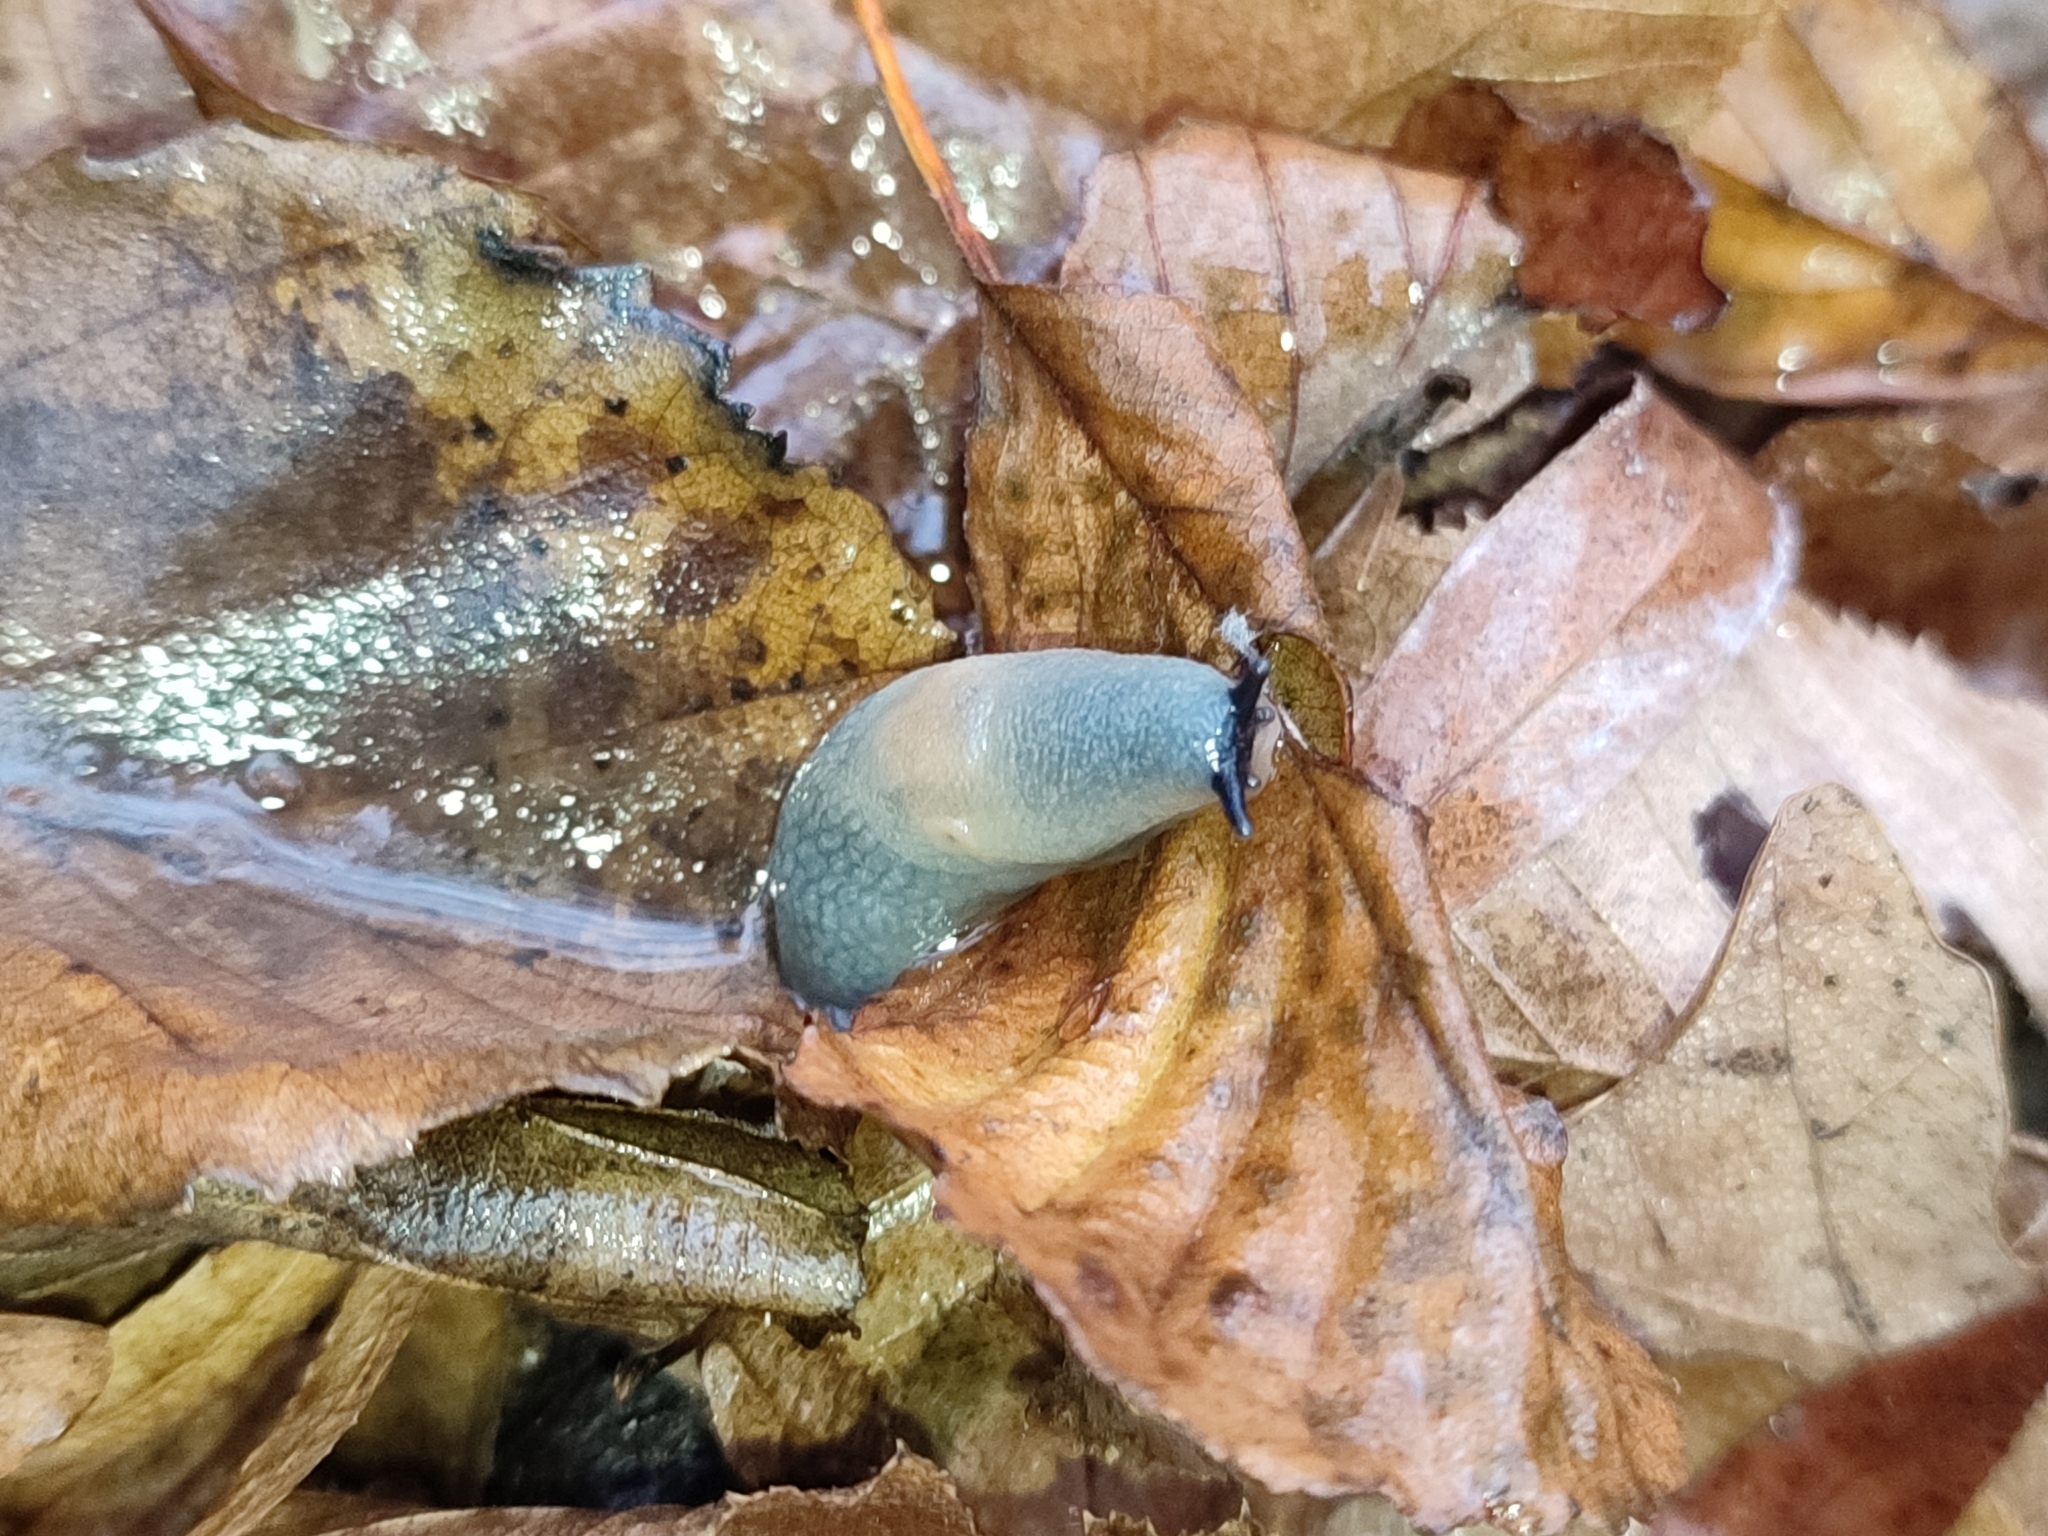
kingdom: Animalia
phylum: Mollusca
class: Gastropoda
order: Stylommatophora
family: Agriolimacidae
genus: Krynickillus
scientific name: Krynickillus melanocephalus
